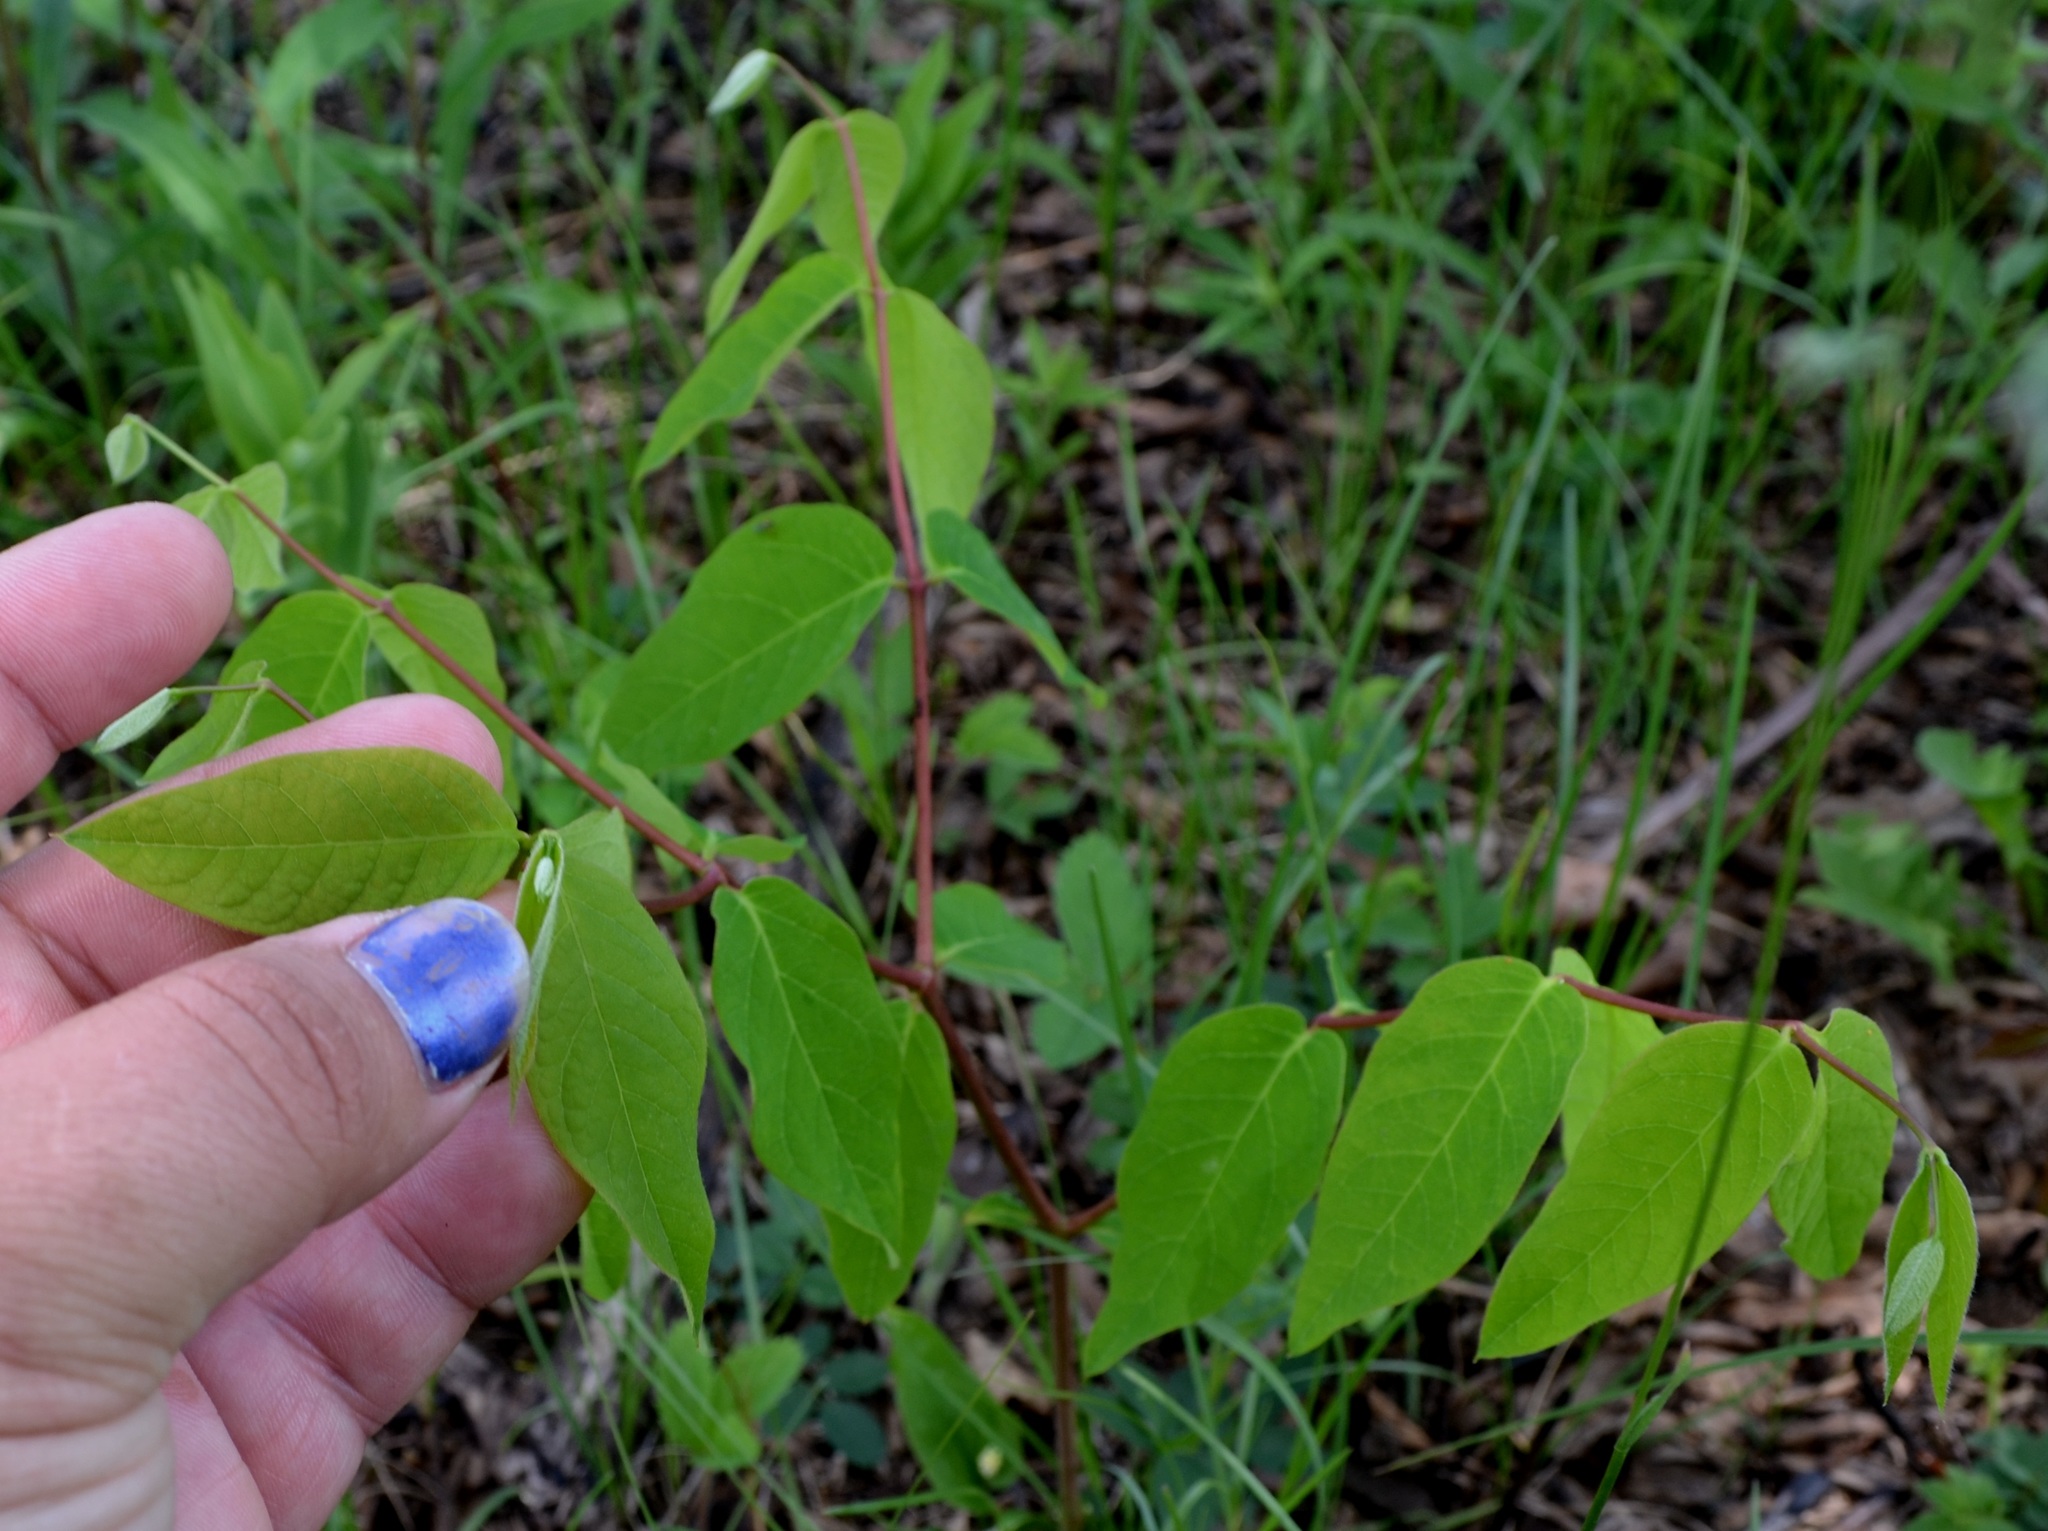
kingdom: Plantae
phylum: Tracheophyta
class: Magnoliopsida
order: Gentianales
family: Apocynaceae
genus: Apocynum
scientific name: Apocynum androsaemifolium
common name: Spreading dogbane
